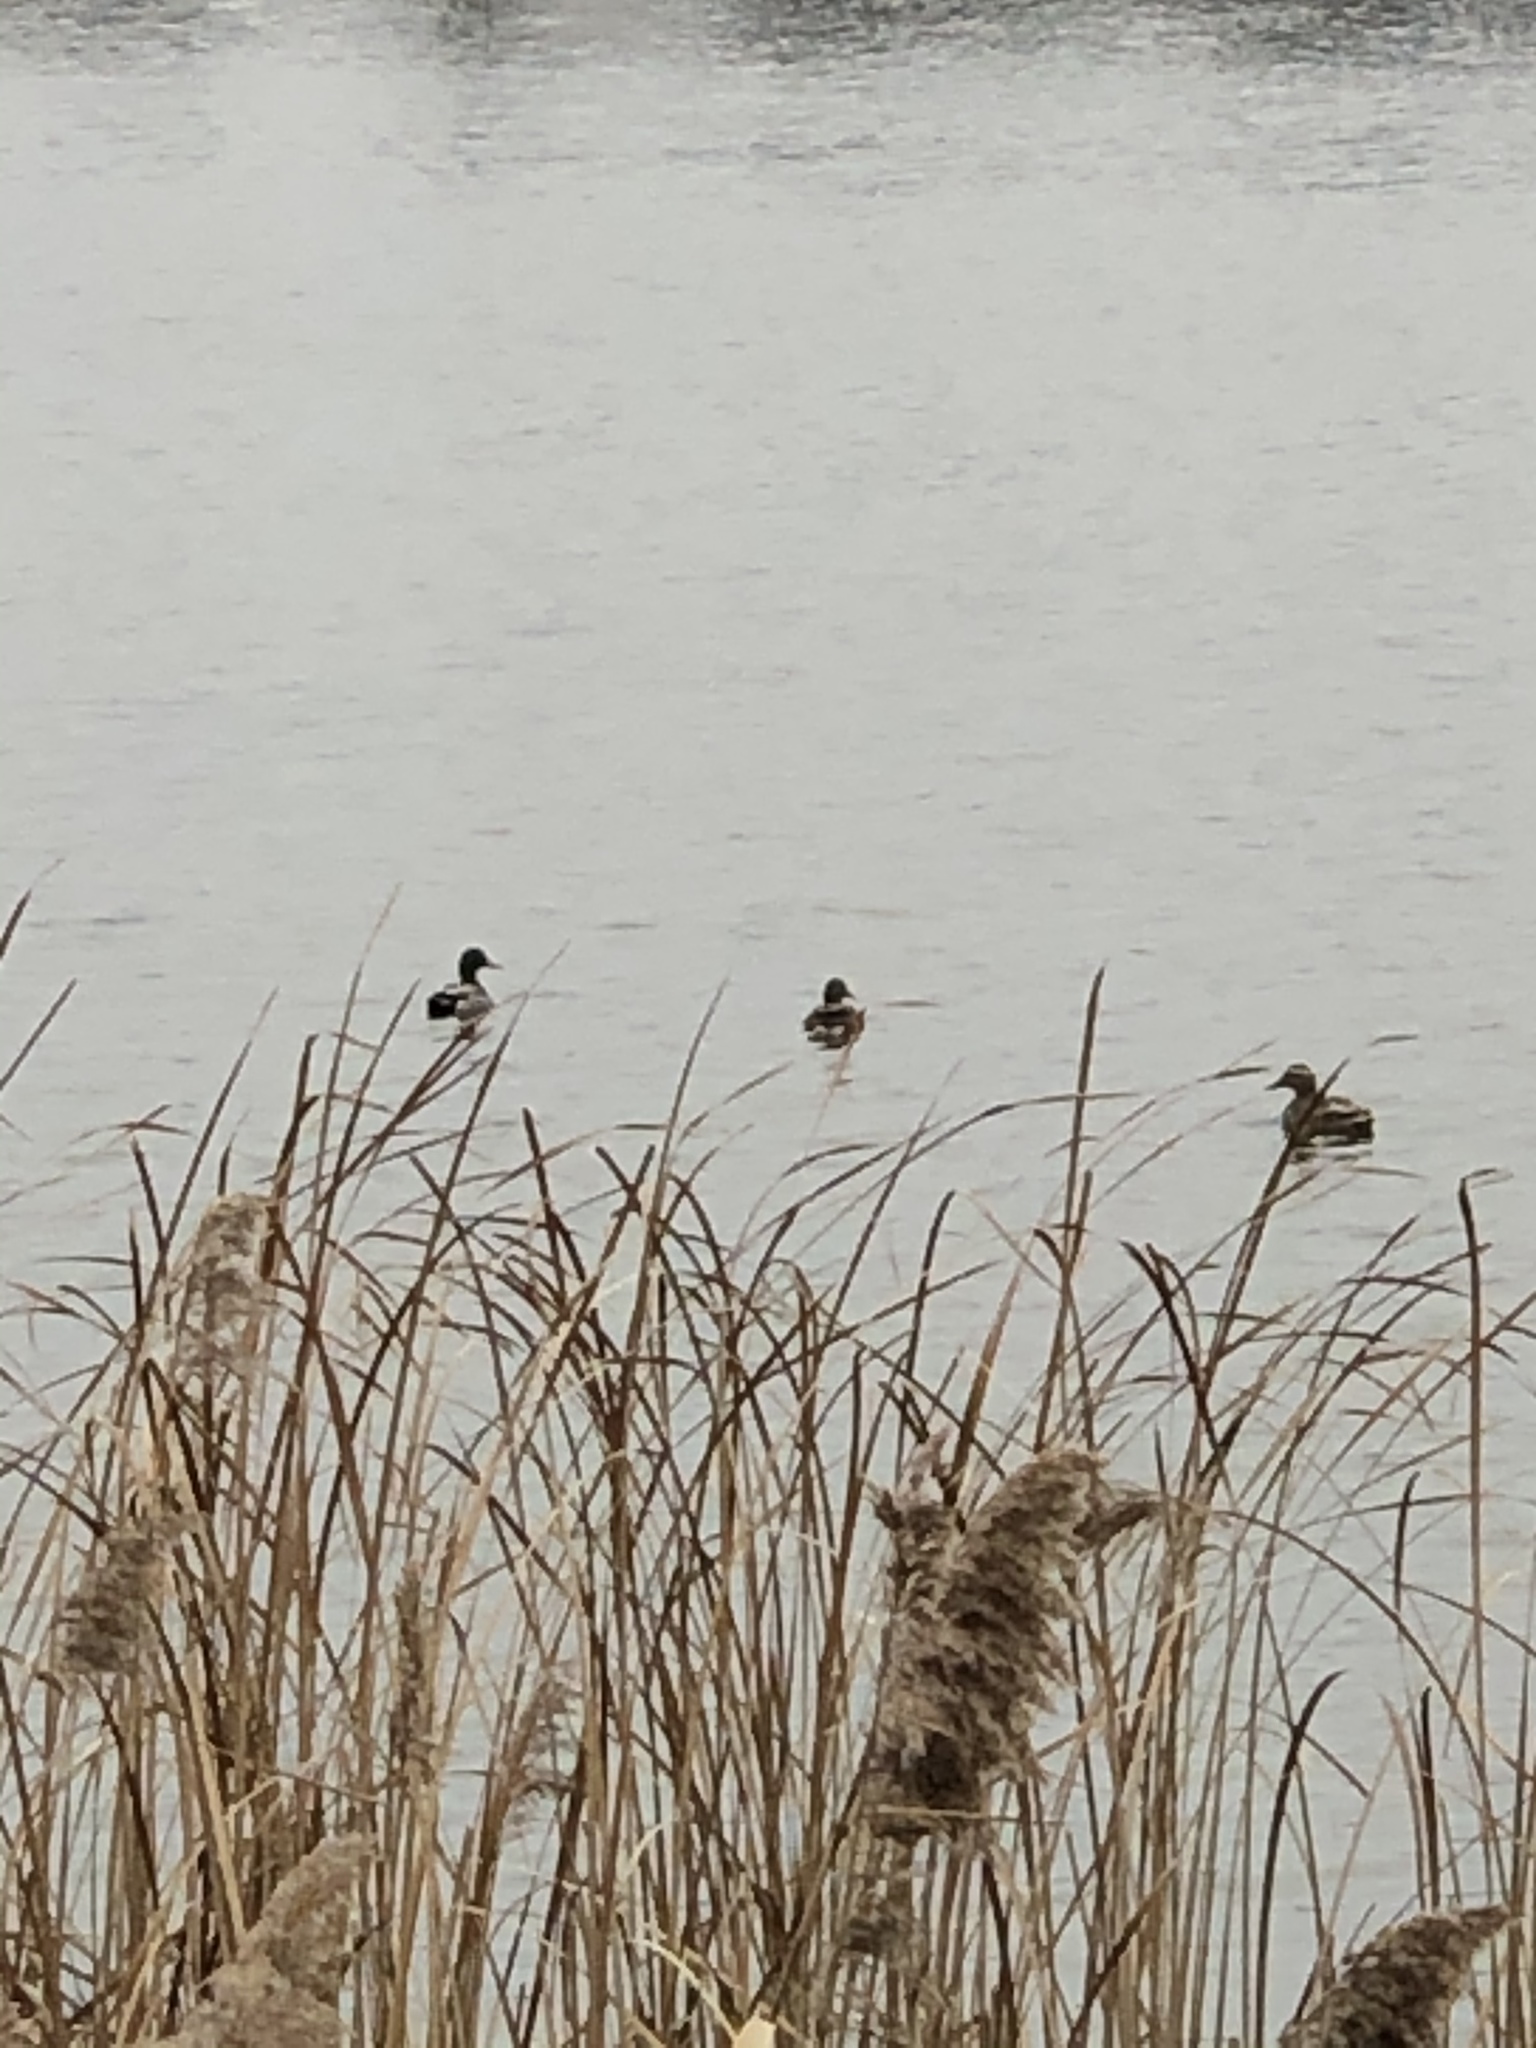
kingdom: Animalia
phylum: Chordata
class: Aves
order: Anseriformes
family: Anatidae
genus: Anas
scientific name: Anas platyrhynchos
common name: Mallard
